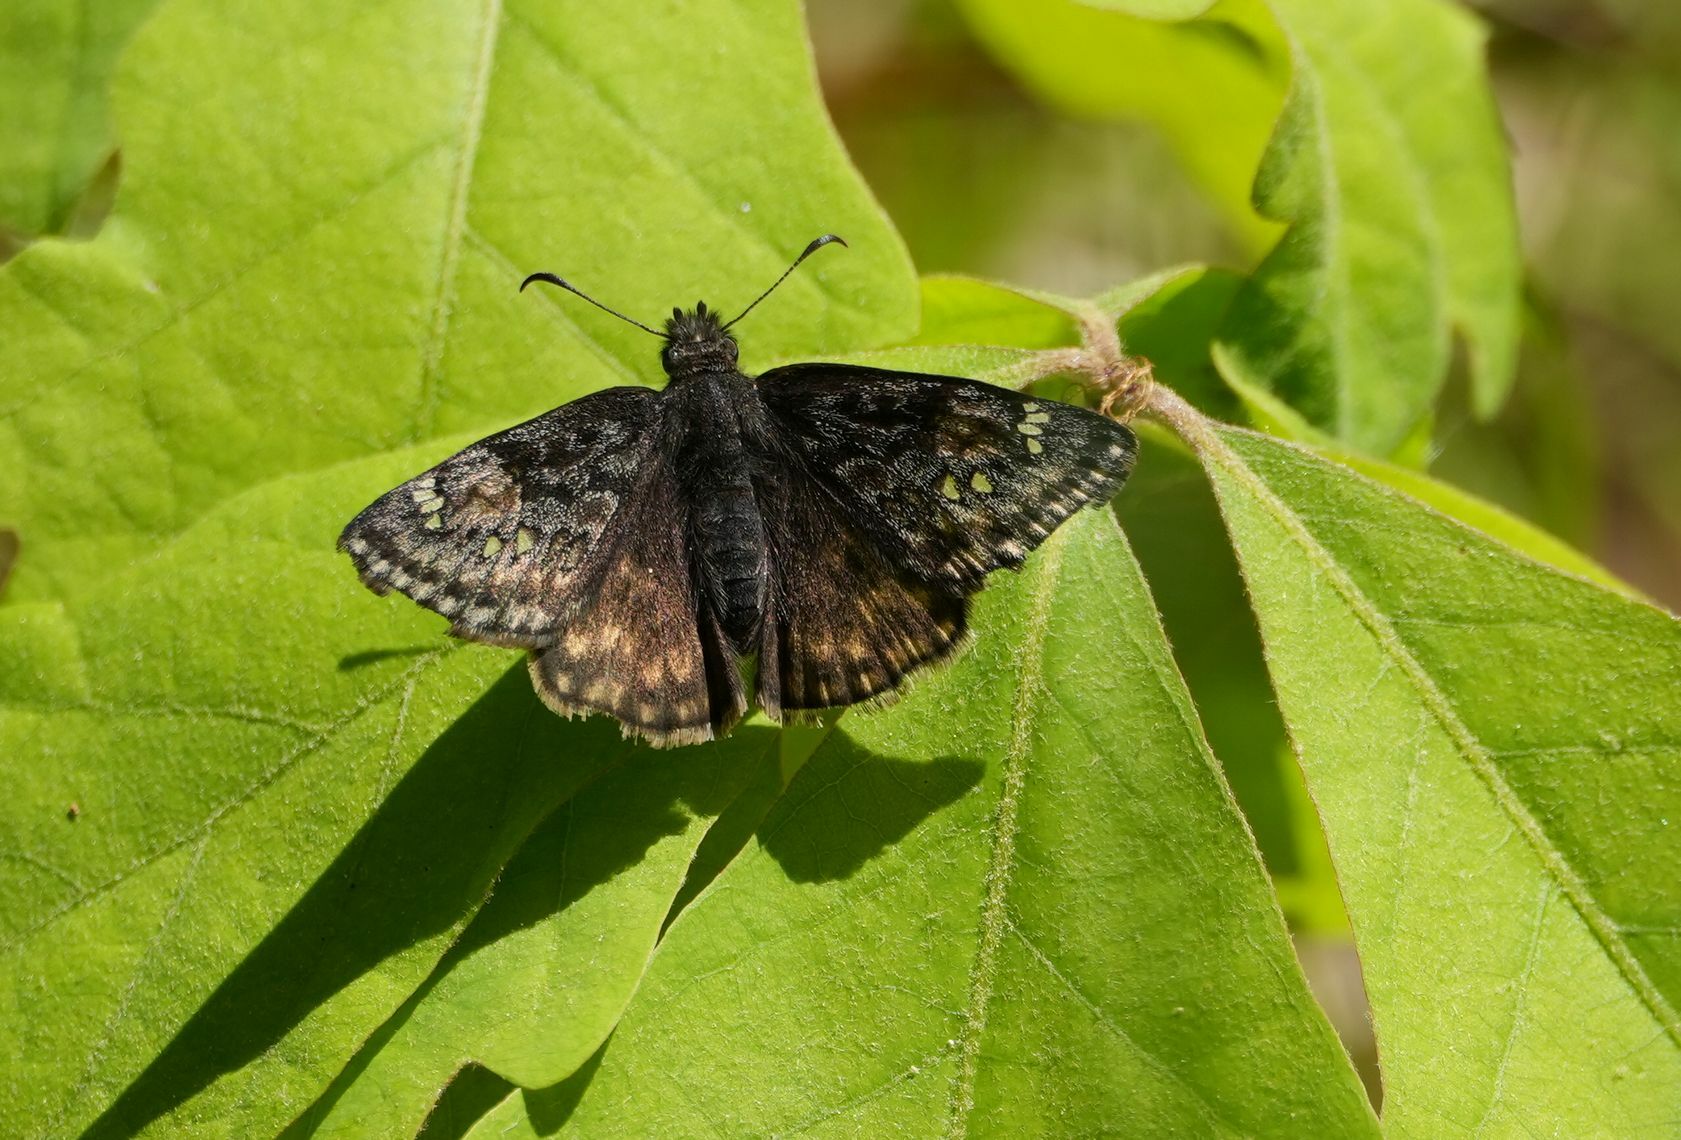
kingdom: Animalia
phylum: Arthropoda
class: Insecta
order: Lepidoptera
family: Hesperiidae
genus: Erynnis
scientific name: Erynnis juvenalis
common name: Juvenal's duskywing
